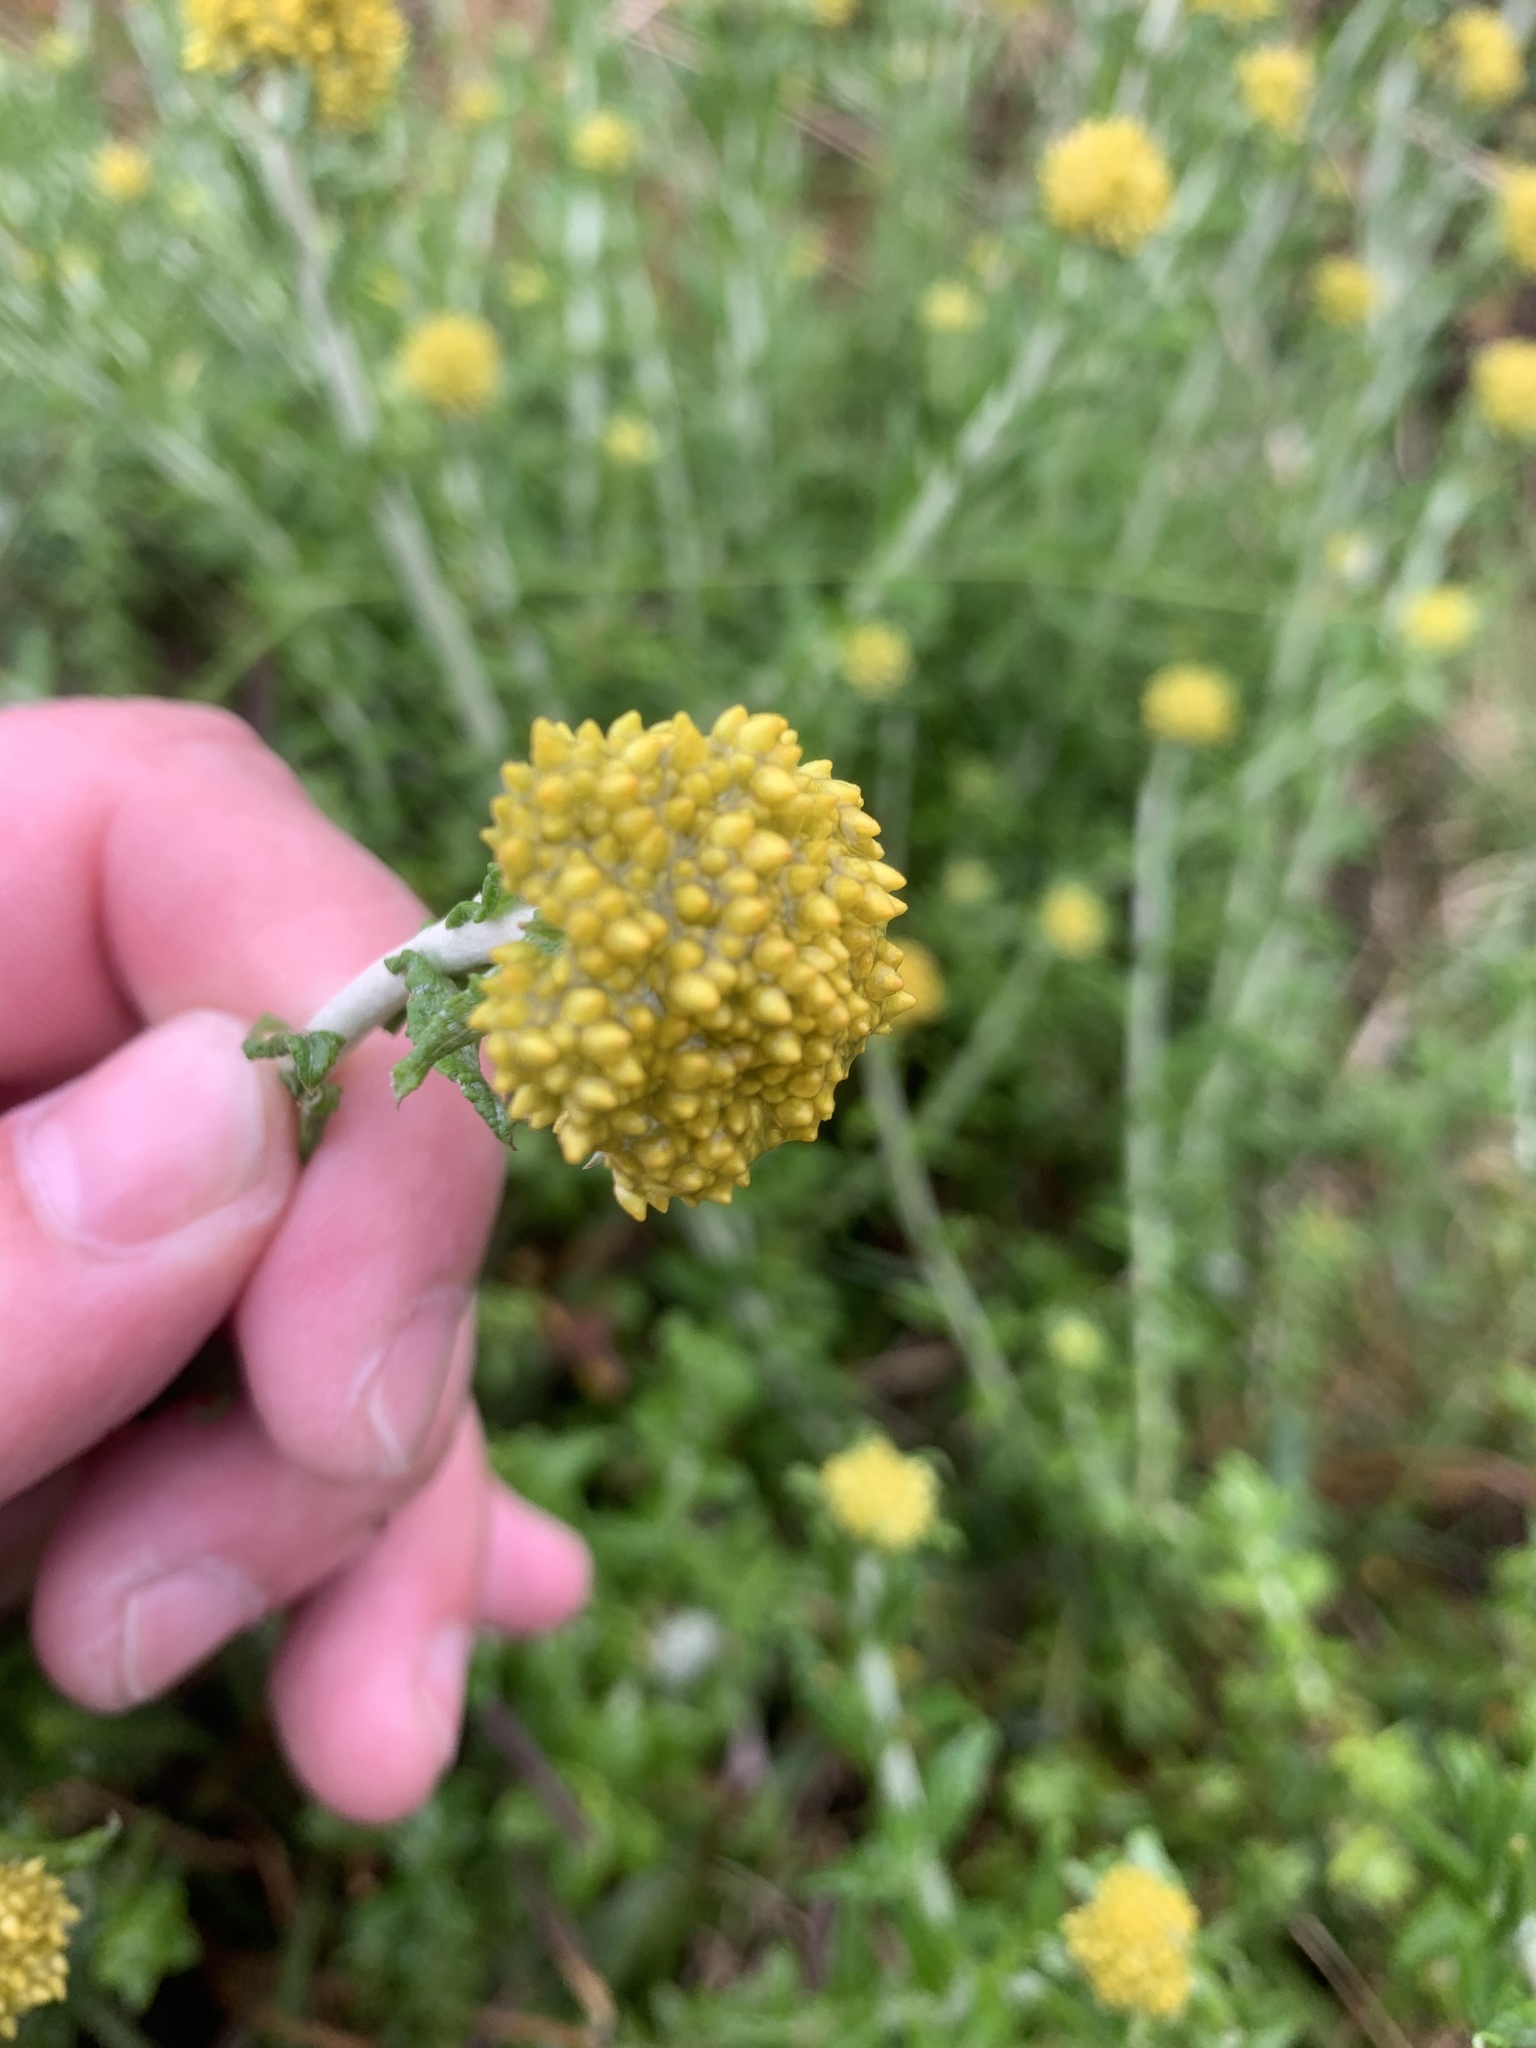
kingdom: Plantae
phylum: Tracheophyta
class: Magnoliopsida
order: Asterales
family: Asteraceae
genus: Helichrysum
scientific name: Helichrysum cymosum
